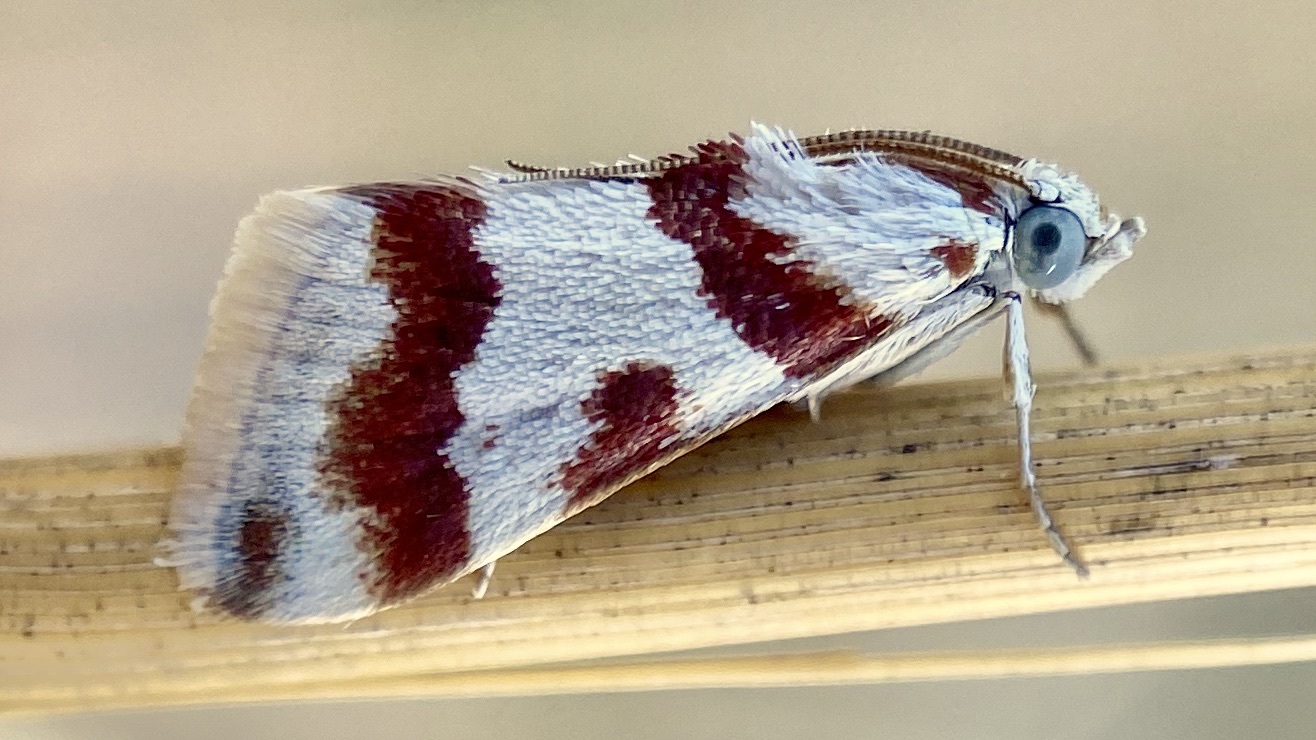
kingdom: Animalia
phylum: Arthropoda
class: Insecta
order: Lepidoptera
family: Crambidae
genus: Noctuelia
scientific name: Noctuelia Mimoschinia rufofascialis
